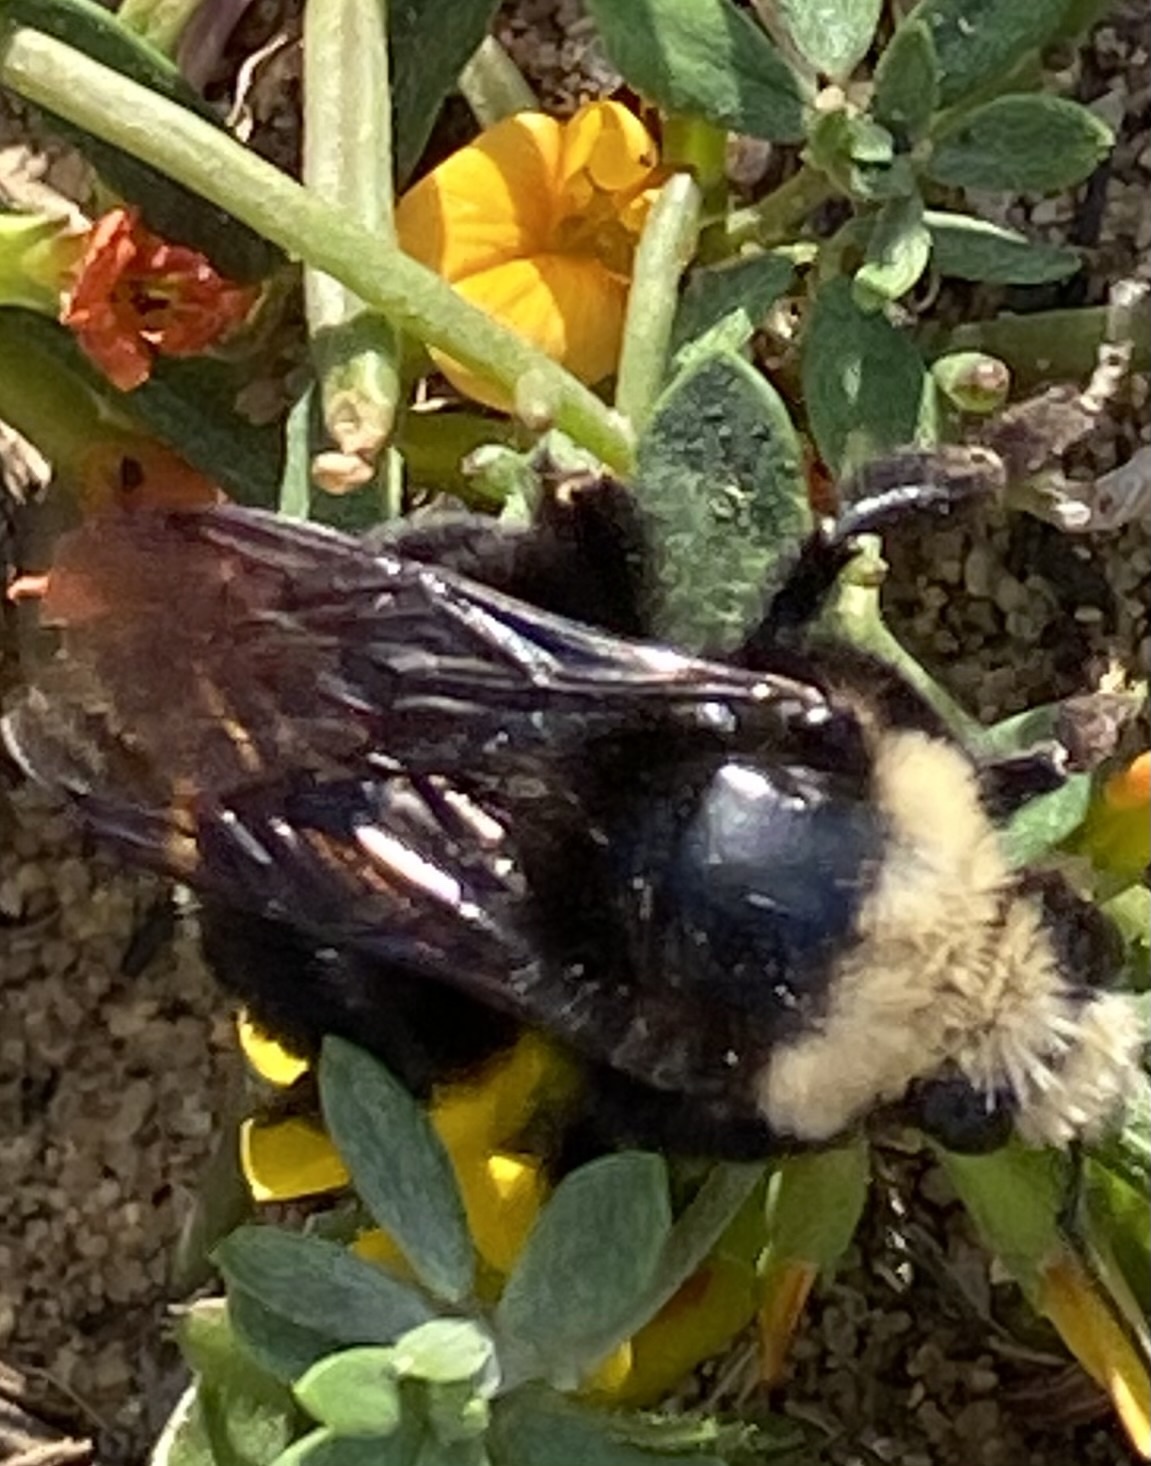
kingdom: Animalia
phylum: Arthropoda
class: Insecta
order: Hymenoptera
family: Apidae
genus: Bombus
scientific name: Bombus vosnesenskii
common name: Vosnesensky bumble bee
